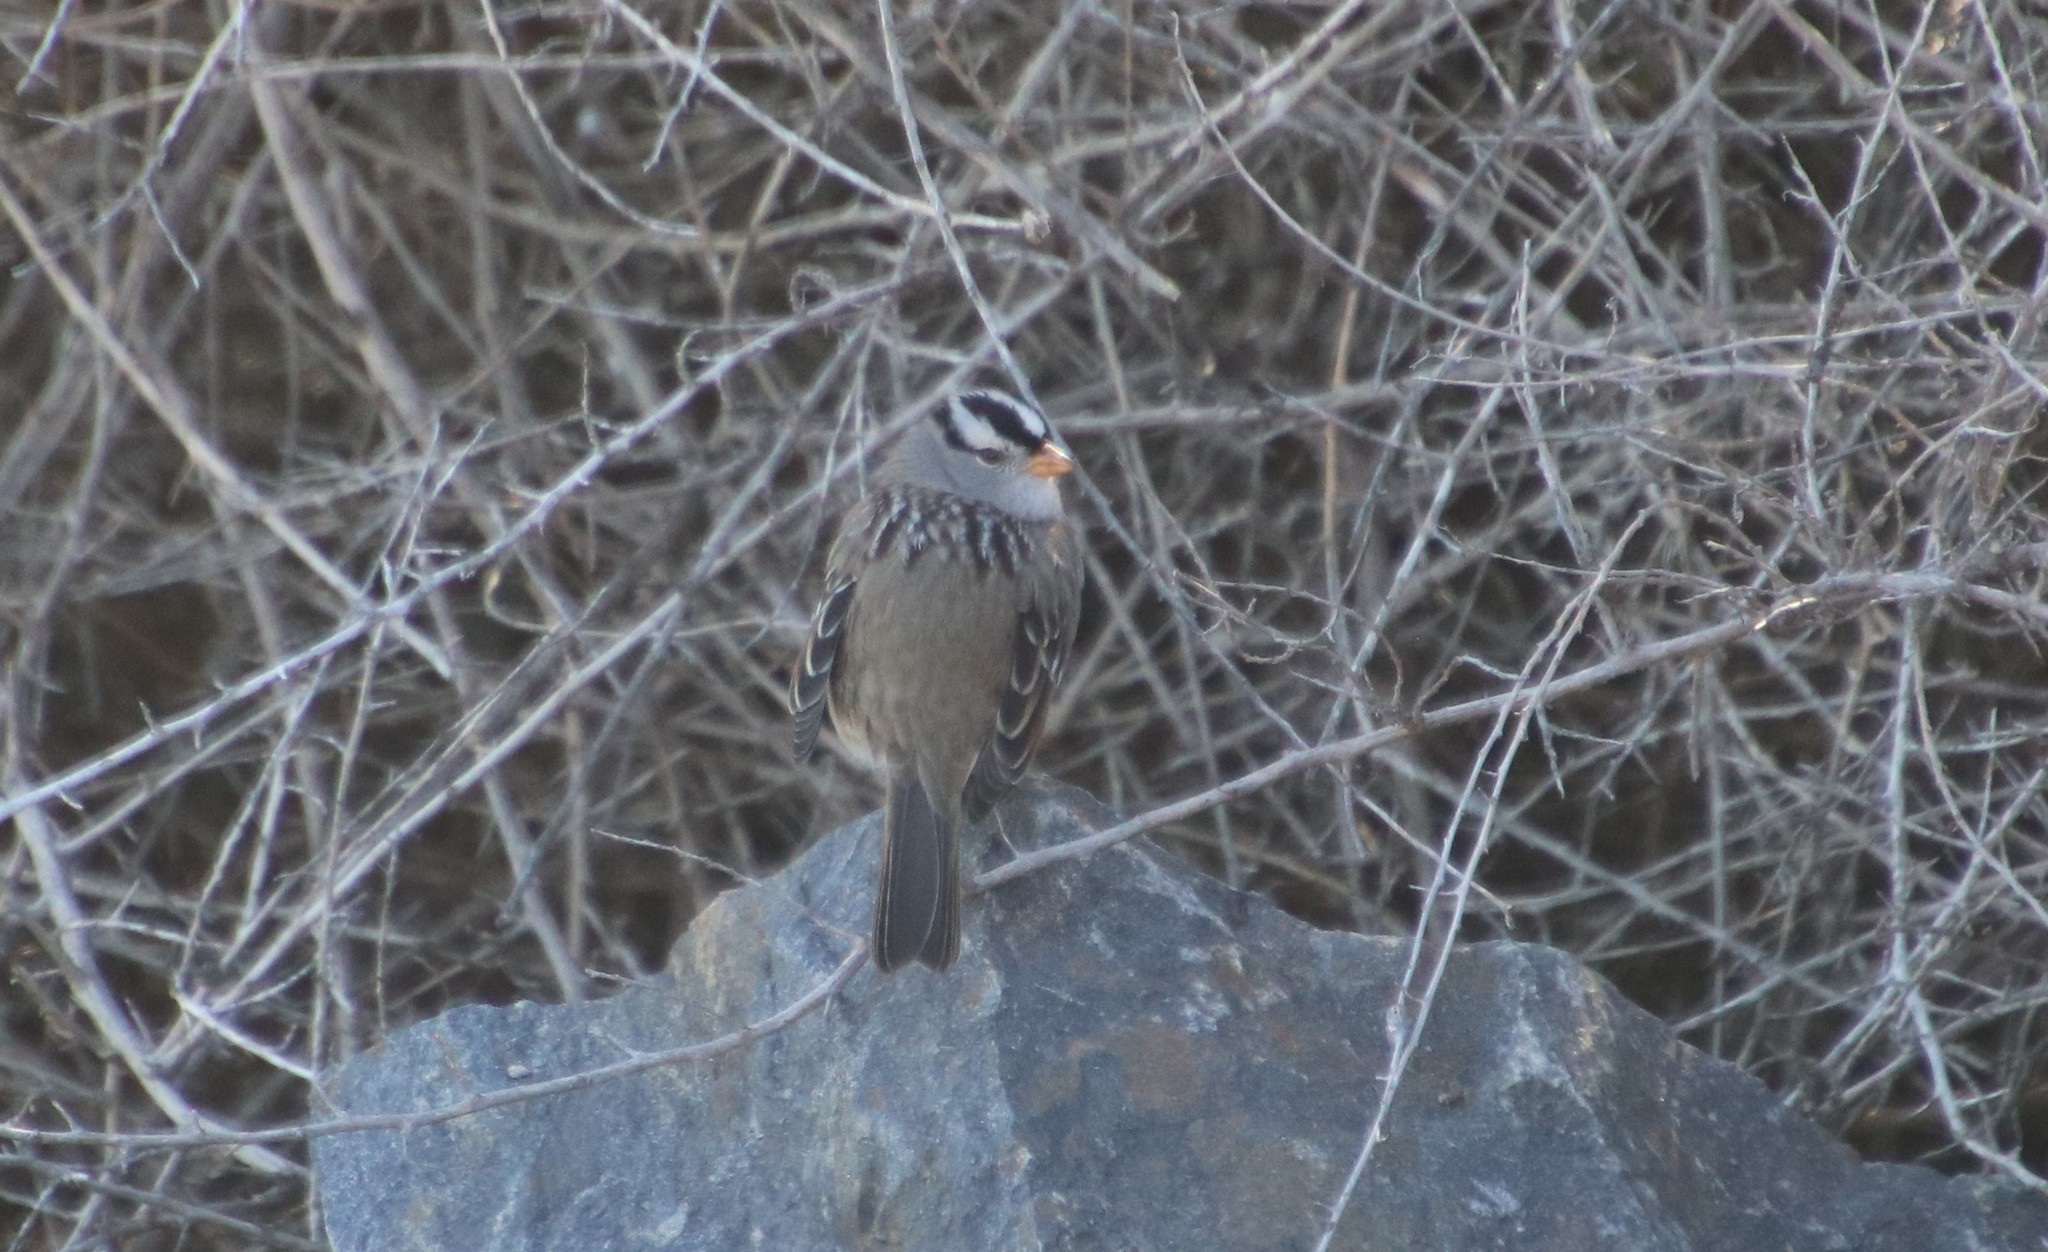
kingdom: Animalia
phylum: Chordata
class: Aves
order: Passeriformes
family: Passerellidae
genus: Zonotrichia
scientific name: Zonotrichia leucophrys
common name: White-crowned sparrow
